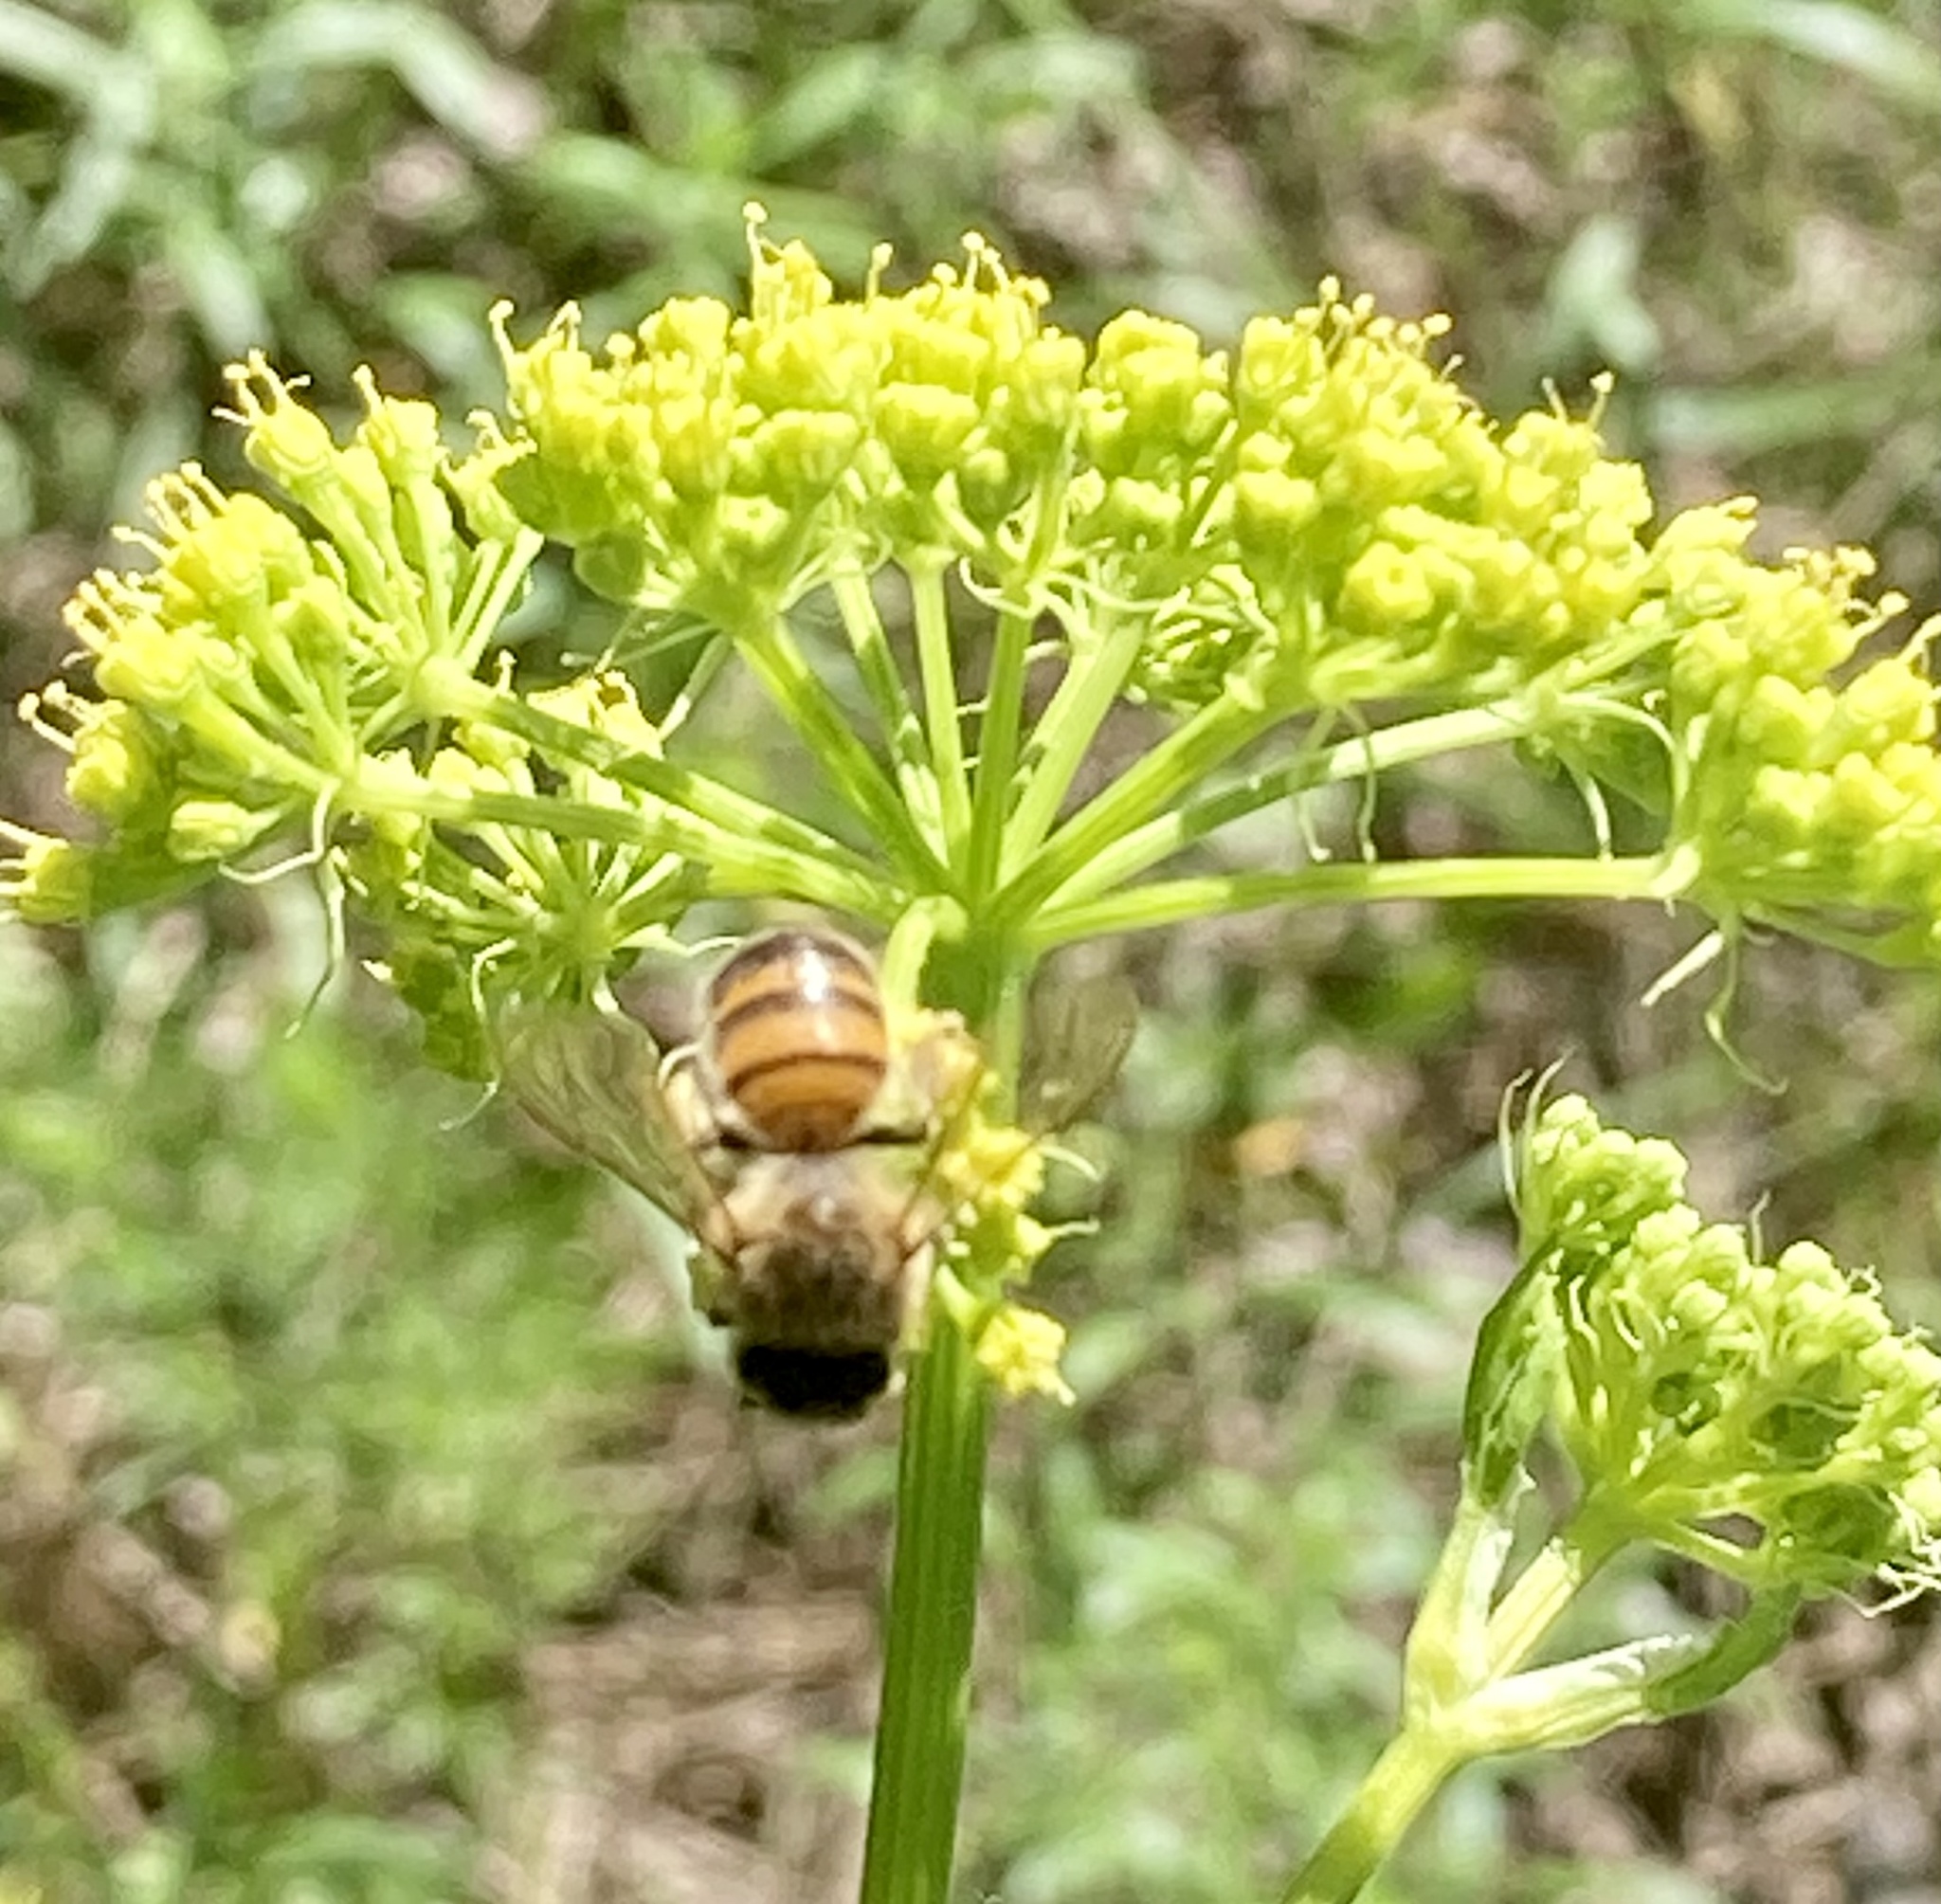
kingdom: Animalia
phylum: Arthropoda
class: Insecta
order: Hymenoptera
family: Apidae
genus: Apis
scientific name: Apis mellifera
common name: Honey bee
